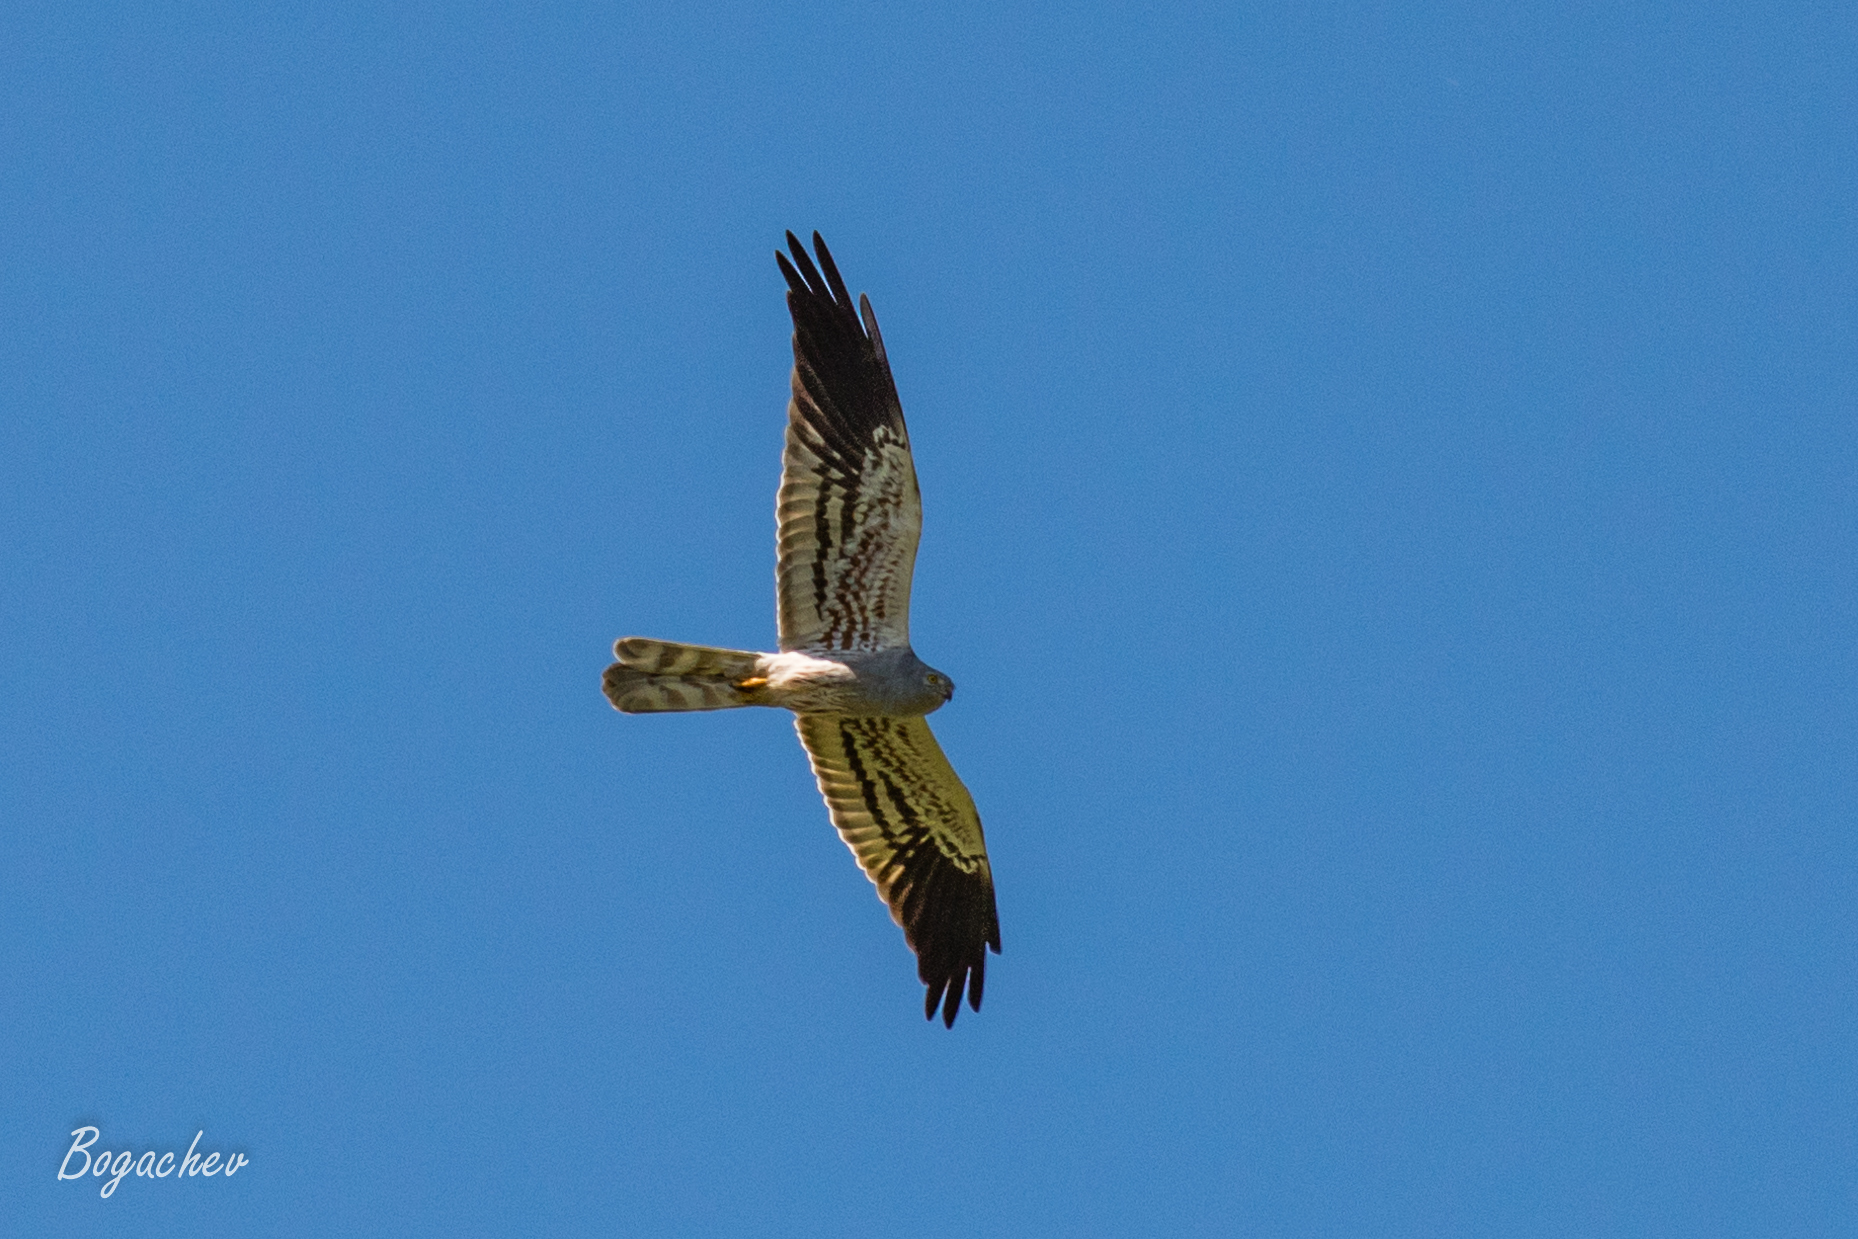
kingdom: Animalia
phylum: Chordata
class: Aves
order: Accipitriformes
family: Accipitridae
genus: Circus
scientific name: Circus pygargus
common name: Montagu's harrier
